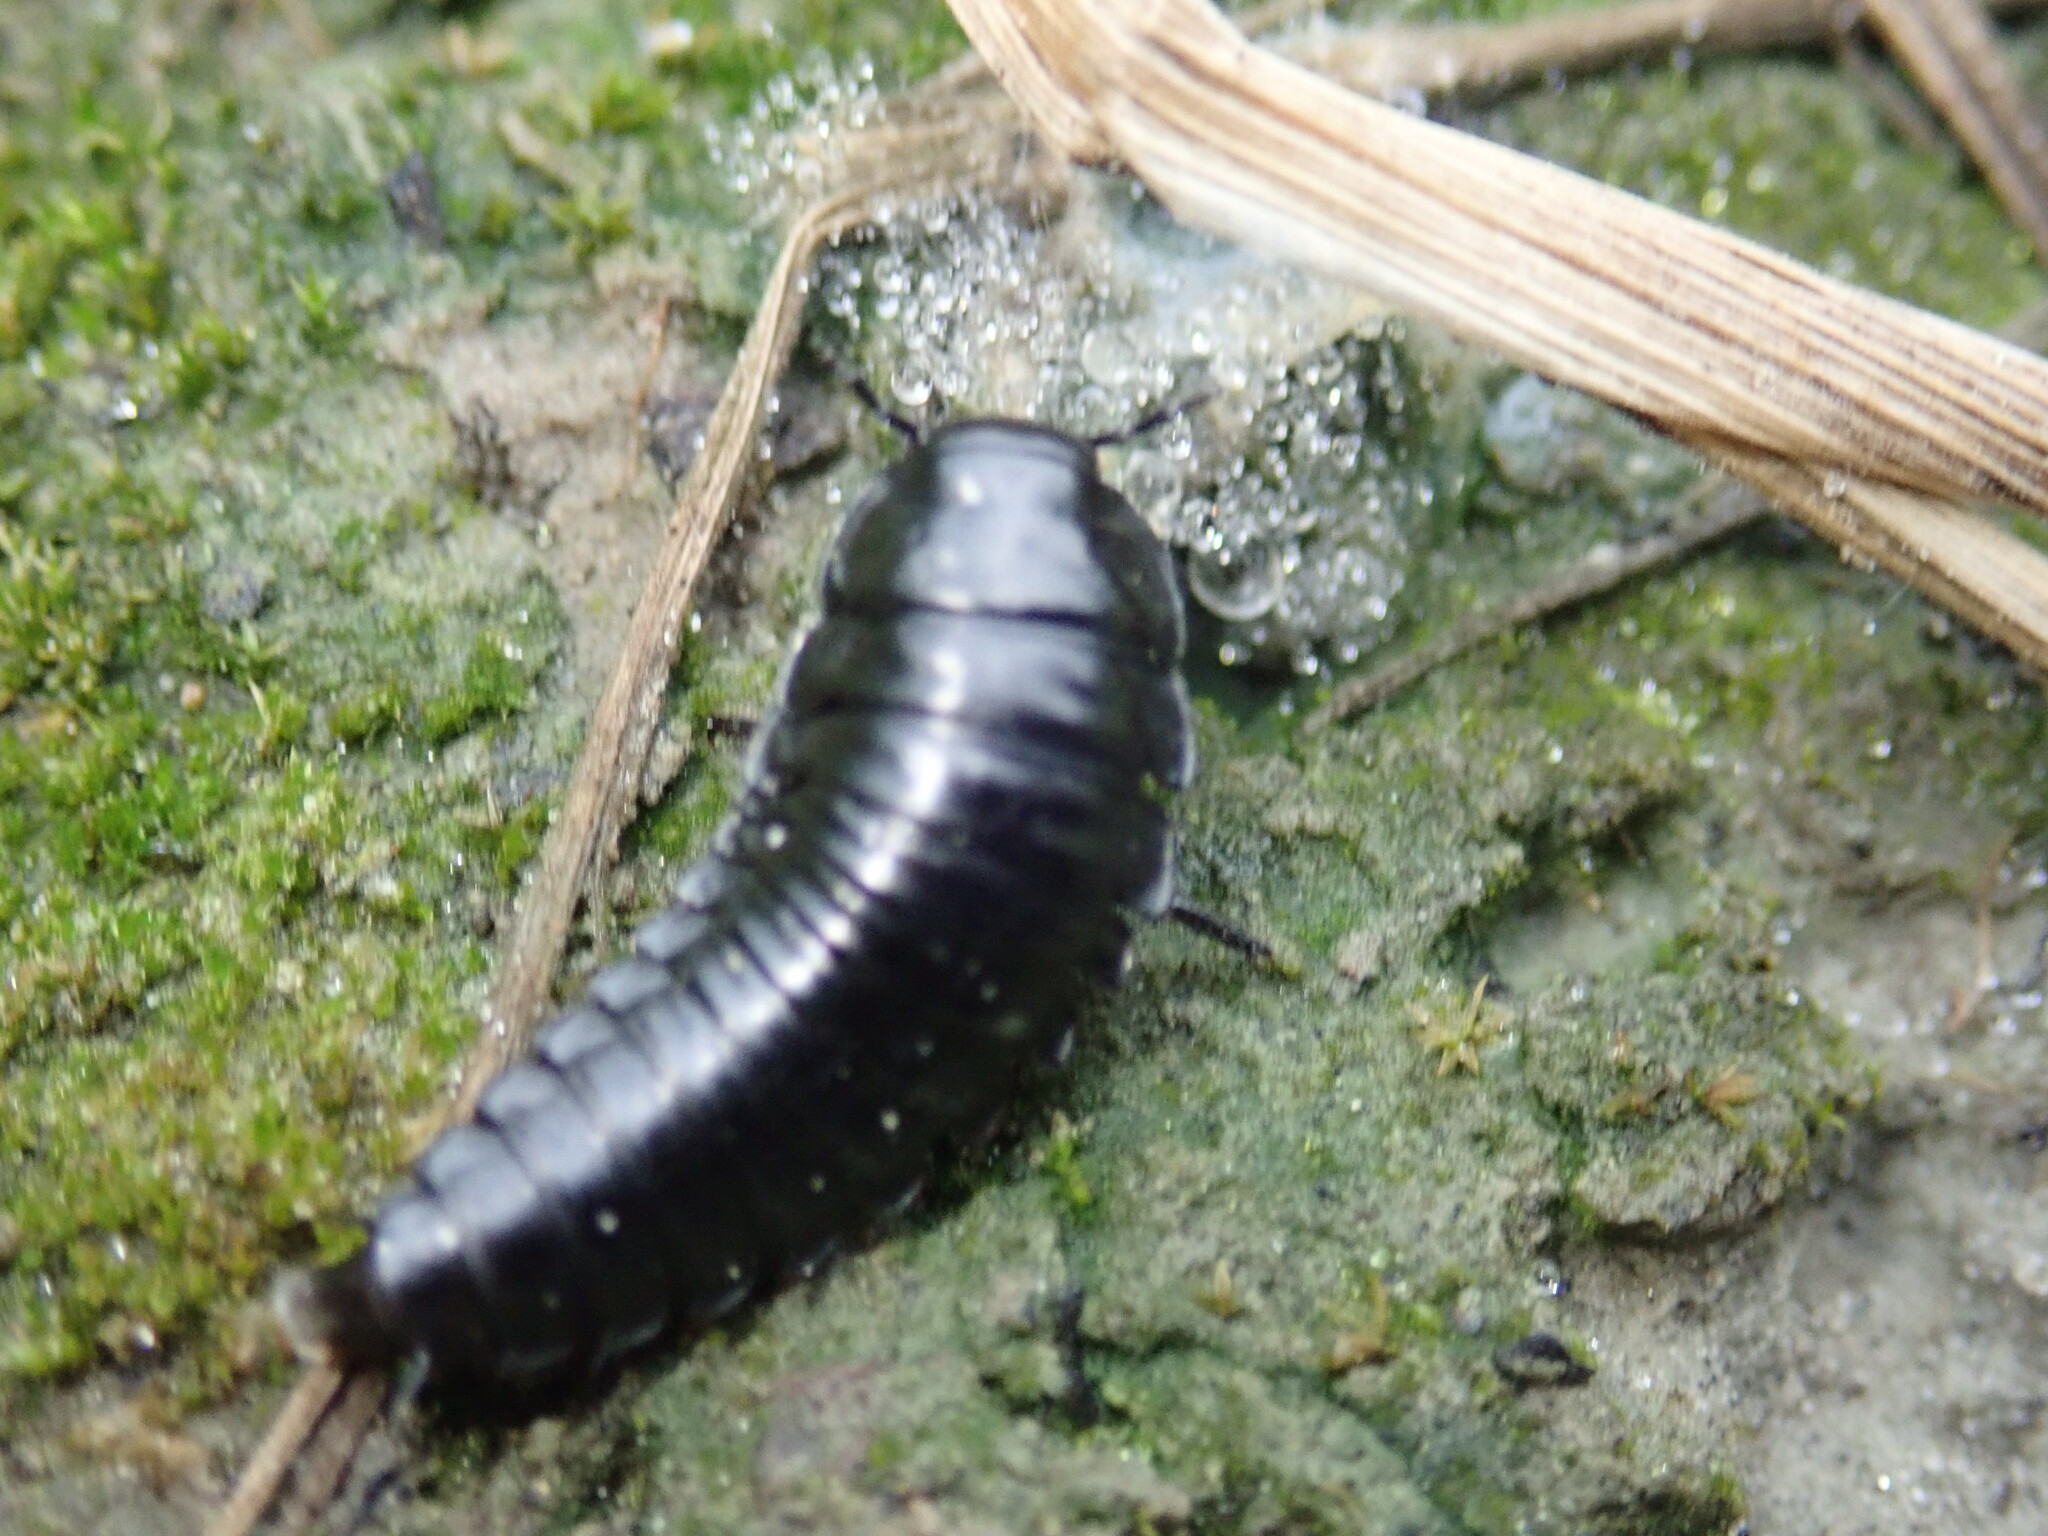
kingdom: Animalia
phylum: Arthropoda
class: Insecta
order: Coleoptera
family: Staphylinidae
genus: Necrophila
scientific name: Necrophila americana
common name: American carrion beetle
